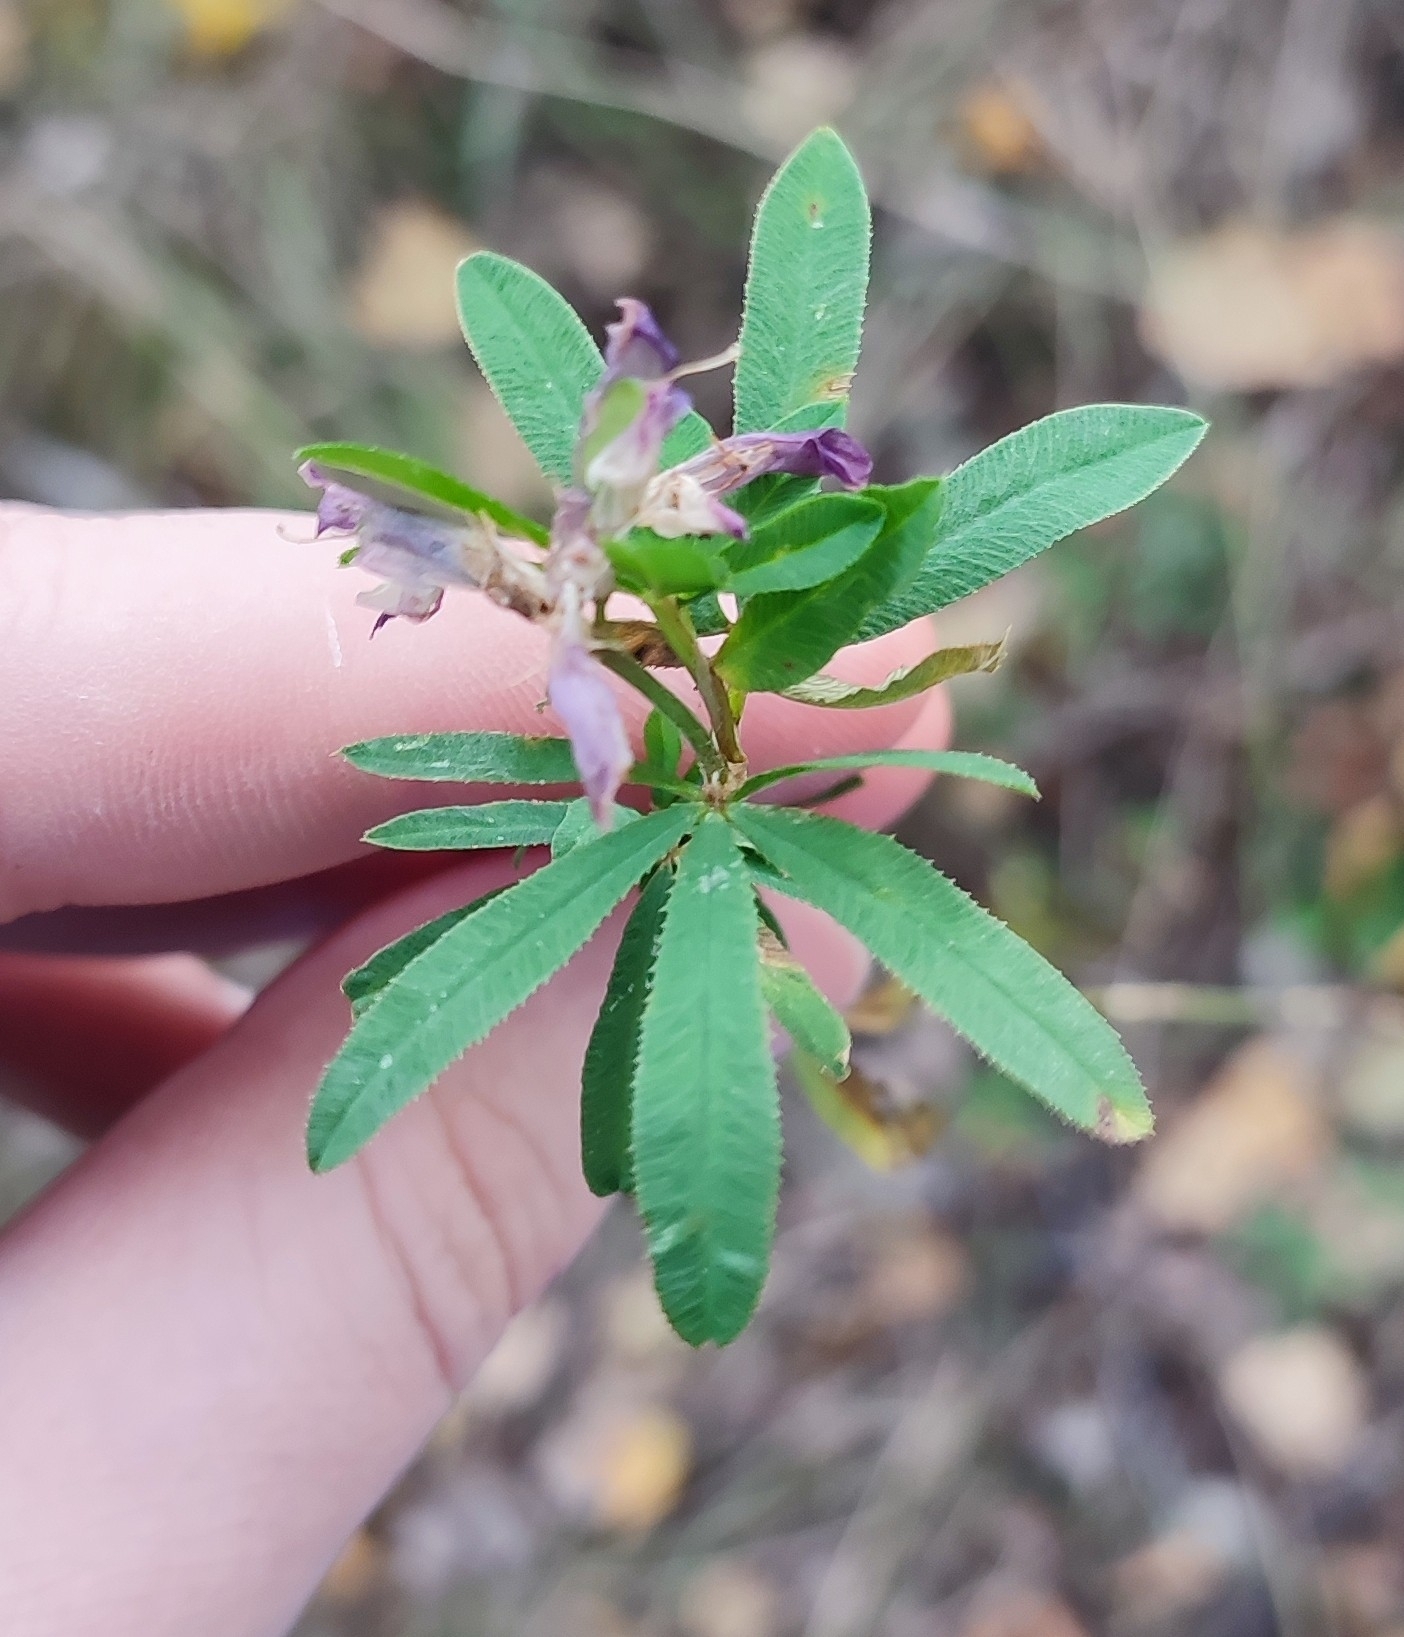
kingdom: Plantae
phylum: Tracheophyta
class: Magnoliopsida
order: Fabales
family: Fabaceae
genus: Trifolium
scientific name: Trifolium lupinaster
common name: Lupine clover
